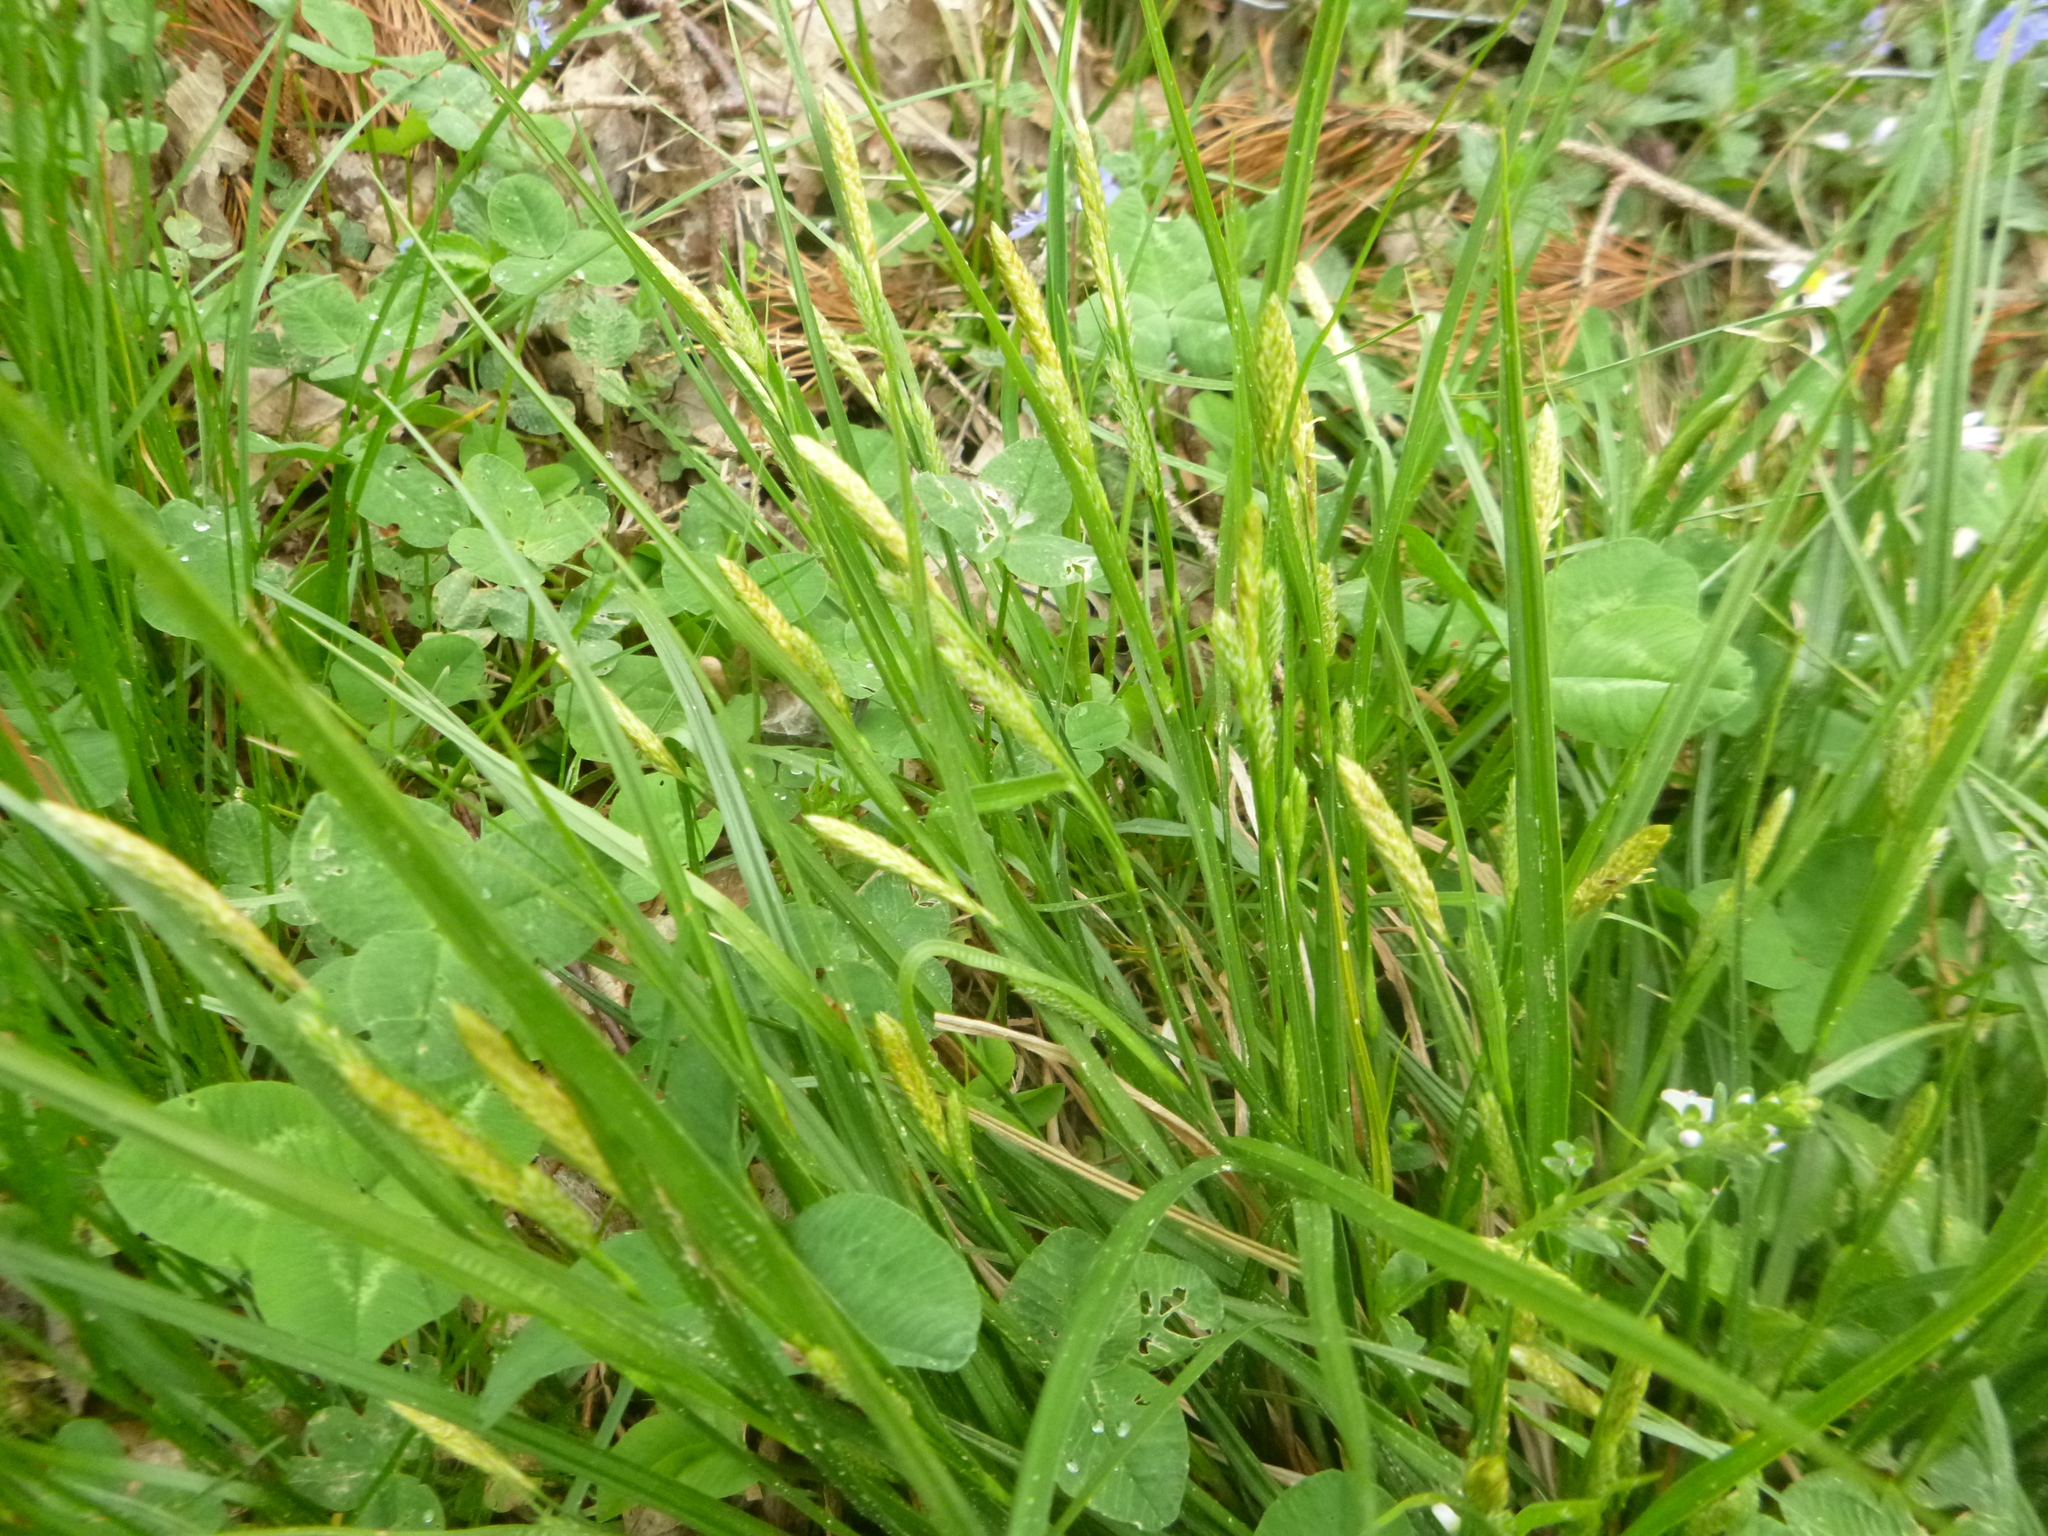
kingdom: Plantae
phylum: Tracheophyta
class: Liliopsida
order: Poales
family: Cyperaceae
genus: Carex
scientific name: Carex sylvatica
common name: Wood-sedge
